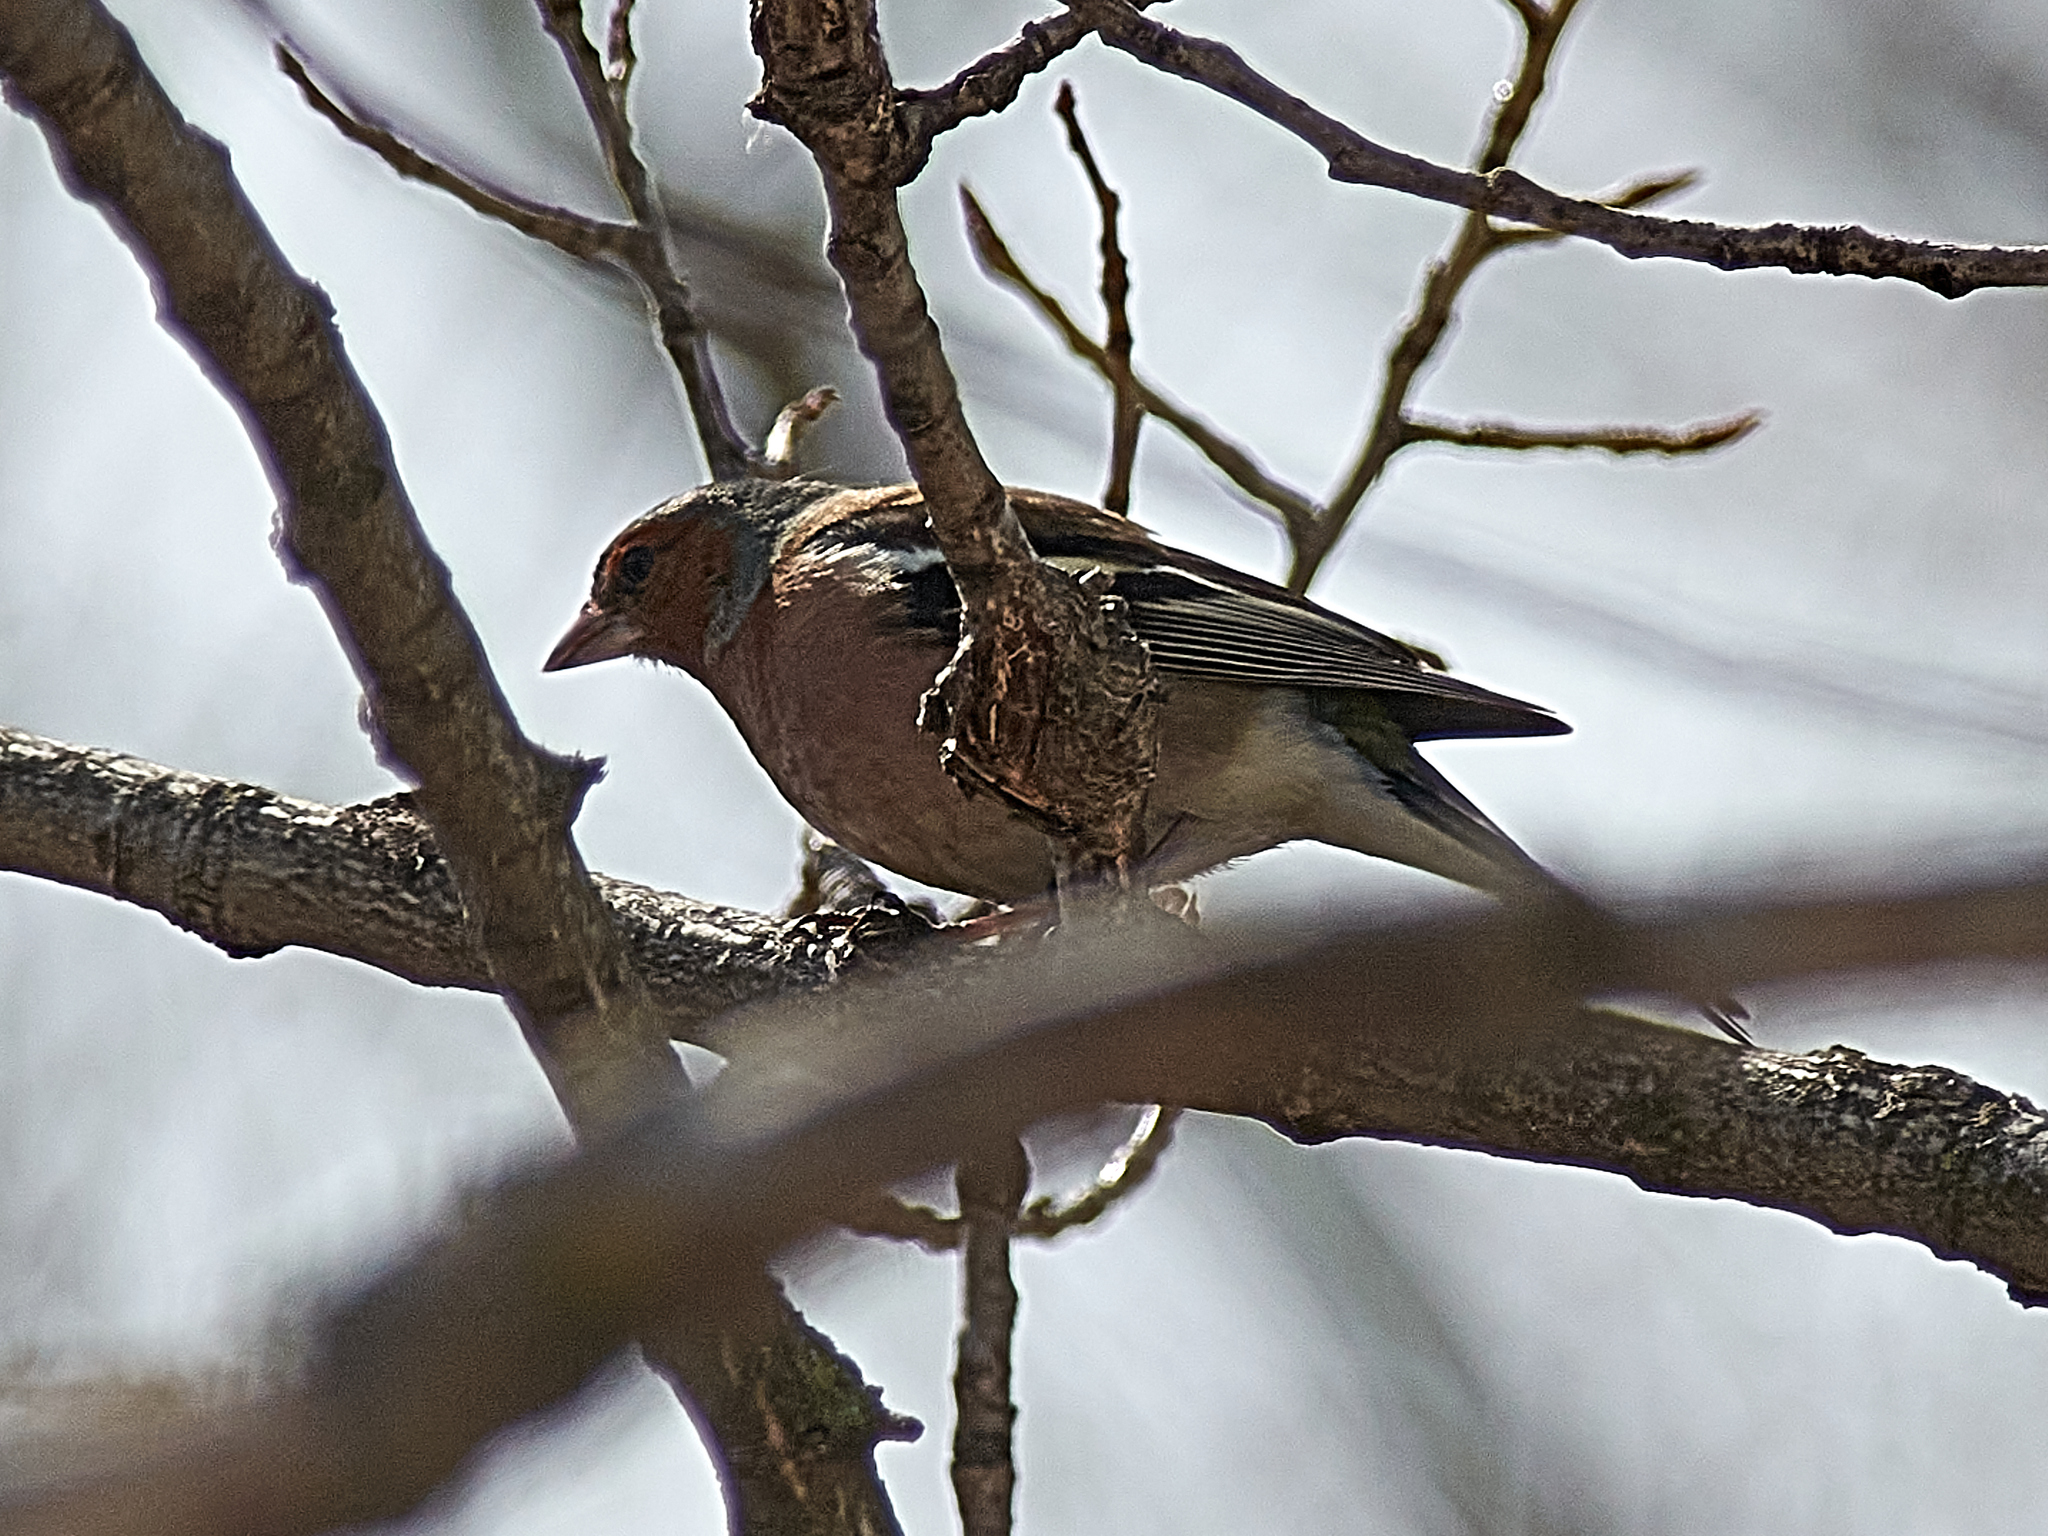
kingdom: Animalia
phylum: Chordata
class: Aves
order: Passeriformes
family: Fringillidae
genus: Fringilla
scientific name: Fringilla coelebs
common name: Common chaffinch
